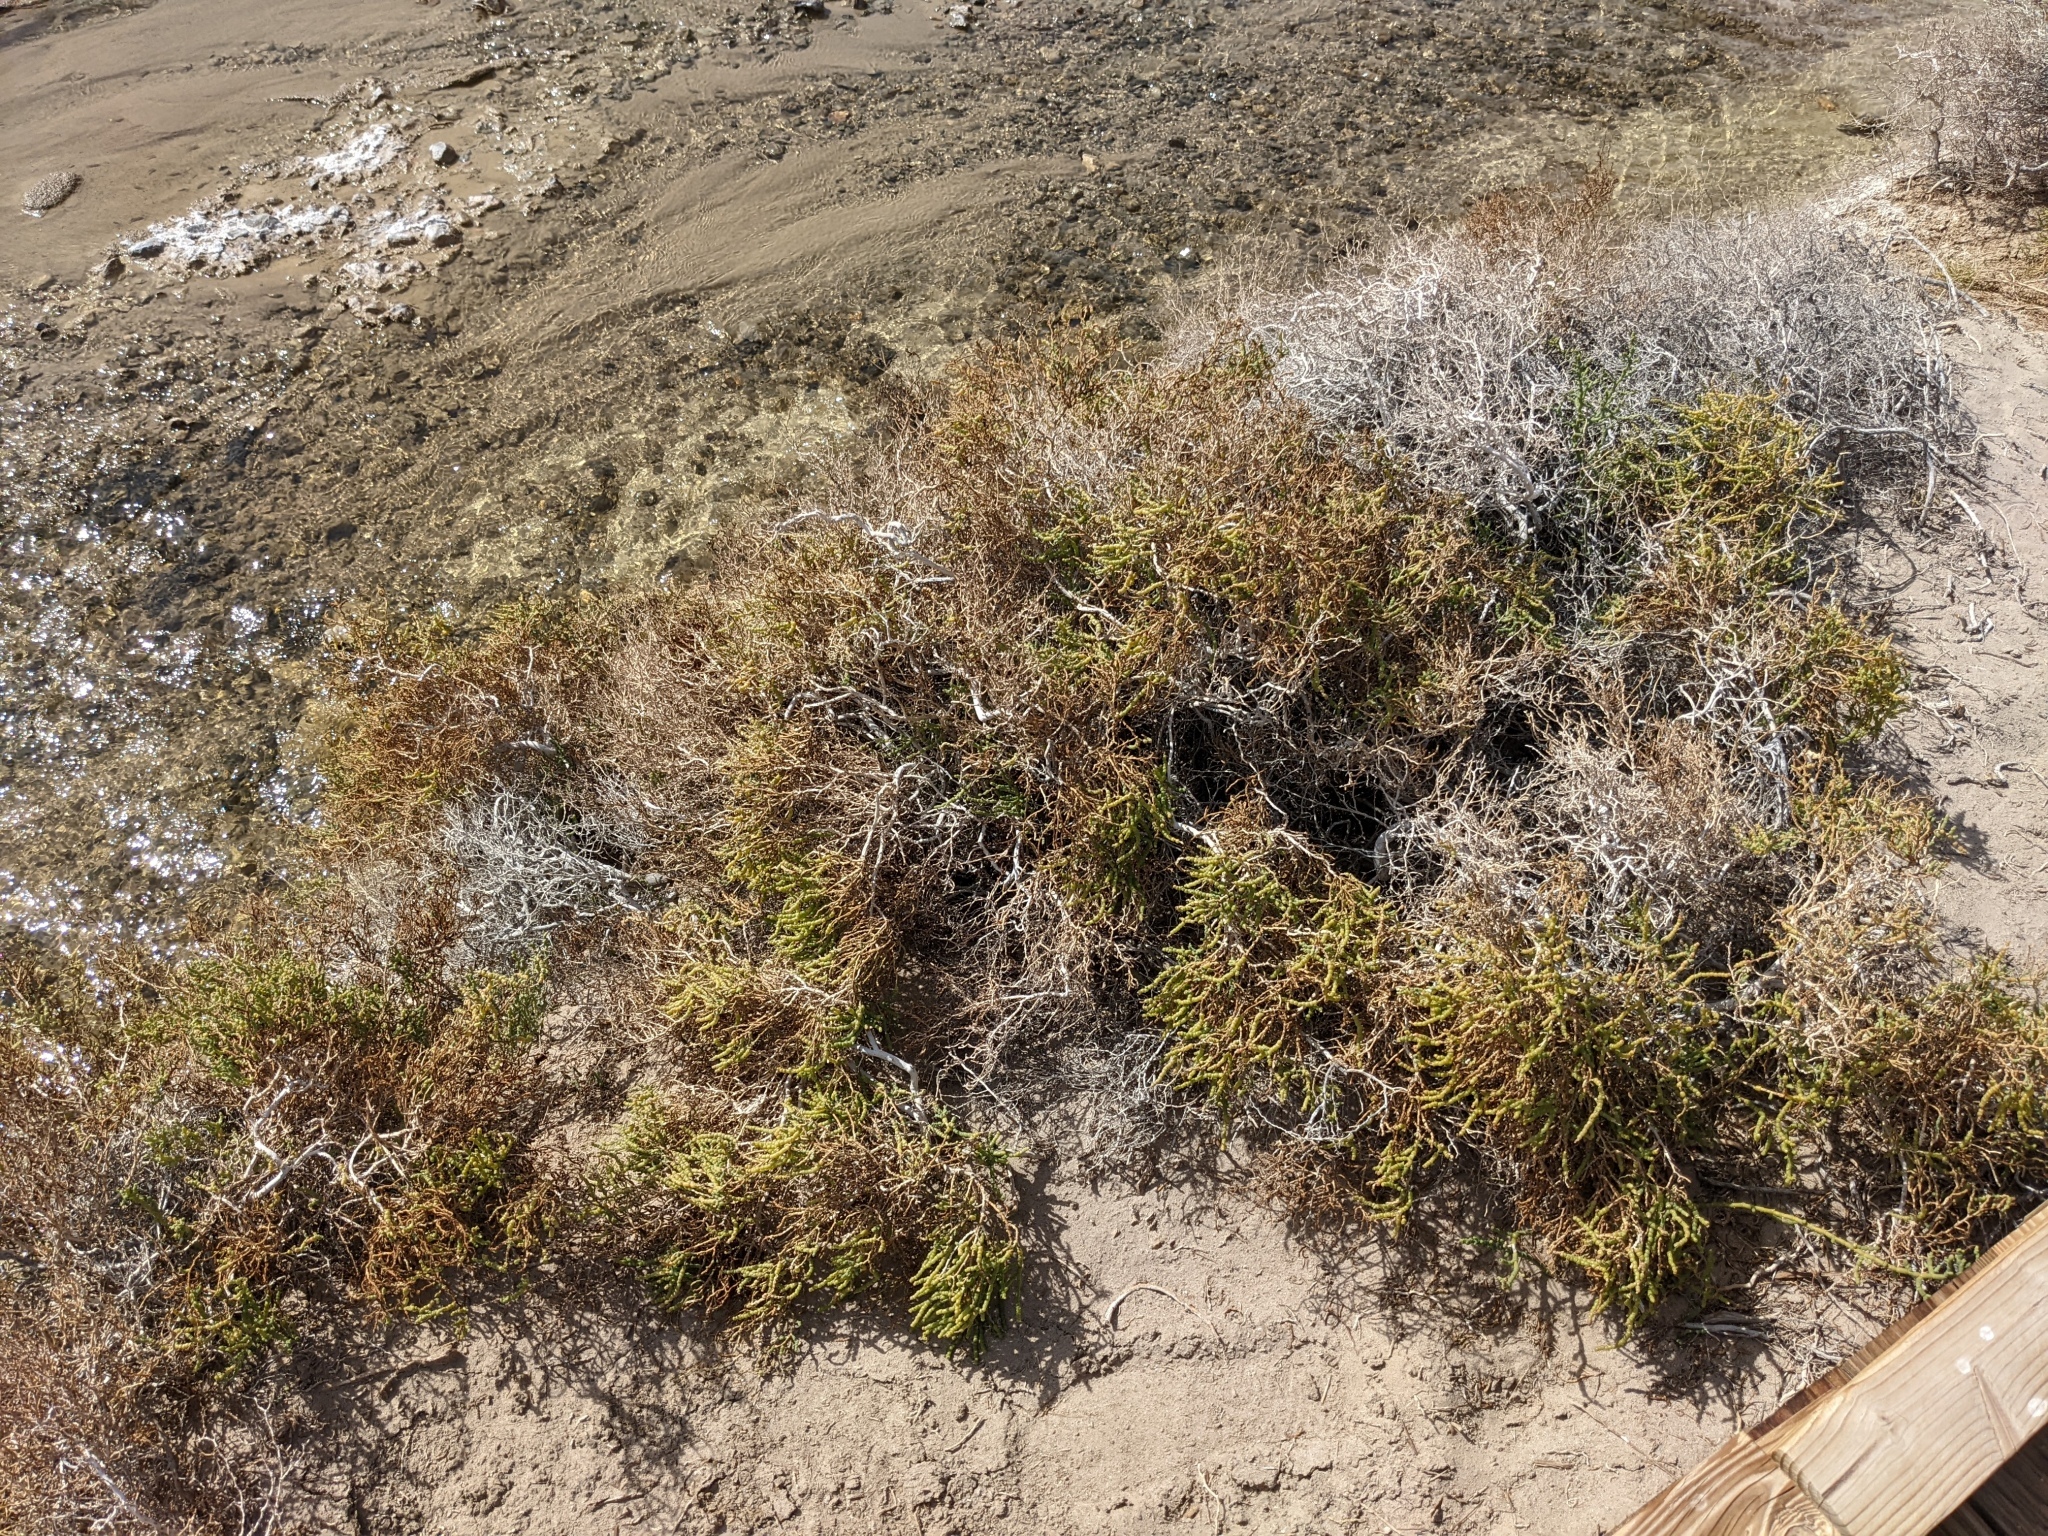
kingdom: Plantae
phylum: Tracheophyta
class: Magnoliopsida
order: Caryophyllales
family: Amaranthaceae
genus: Allenrolfea
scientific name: Allenrolfea occidentalis
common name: Iodine-bush
